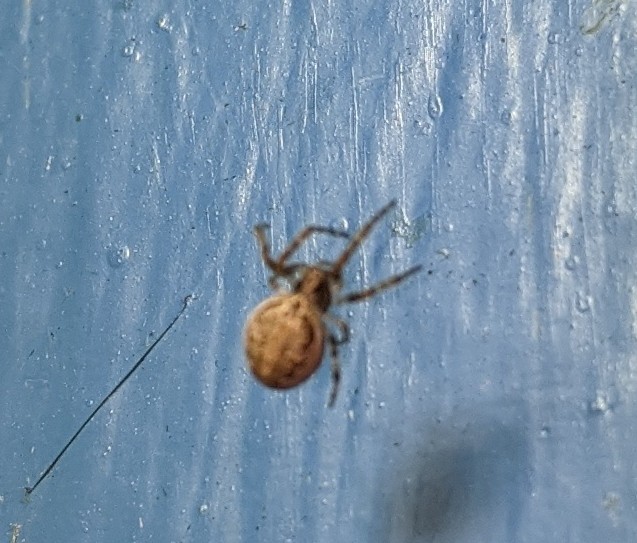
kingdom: Animalia
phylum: Arthropoda
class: Arachnida
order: Araneae
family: Araneidae
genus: Larinioides
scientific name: Larinioides sclopetarius
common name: Bridge orbweaver
